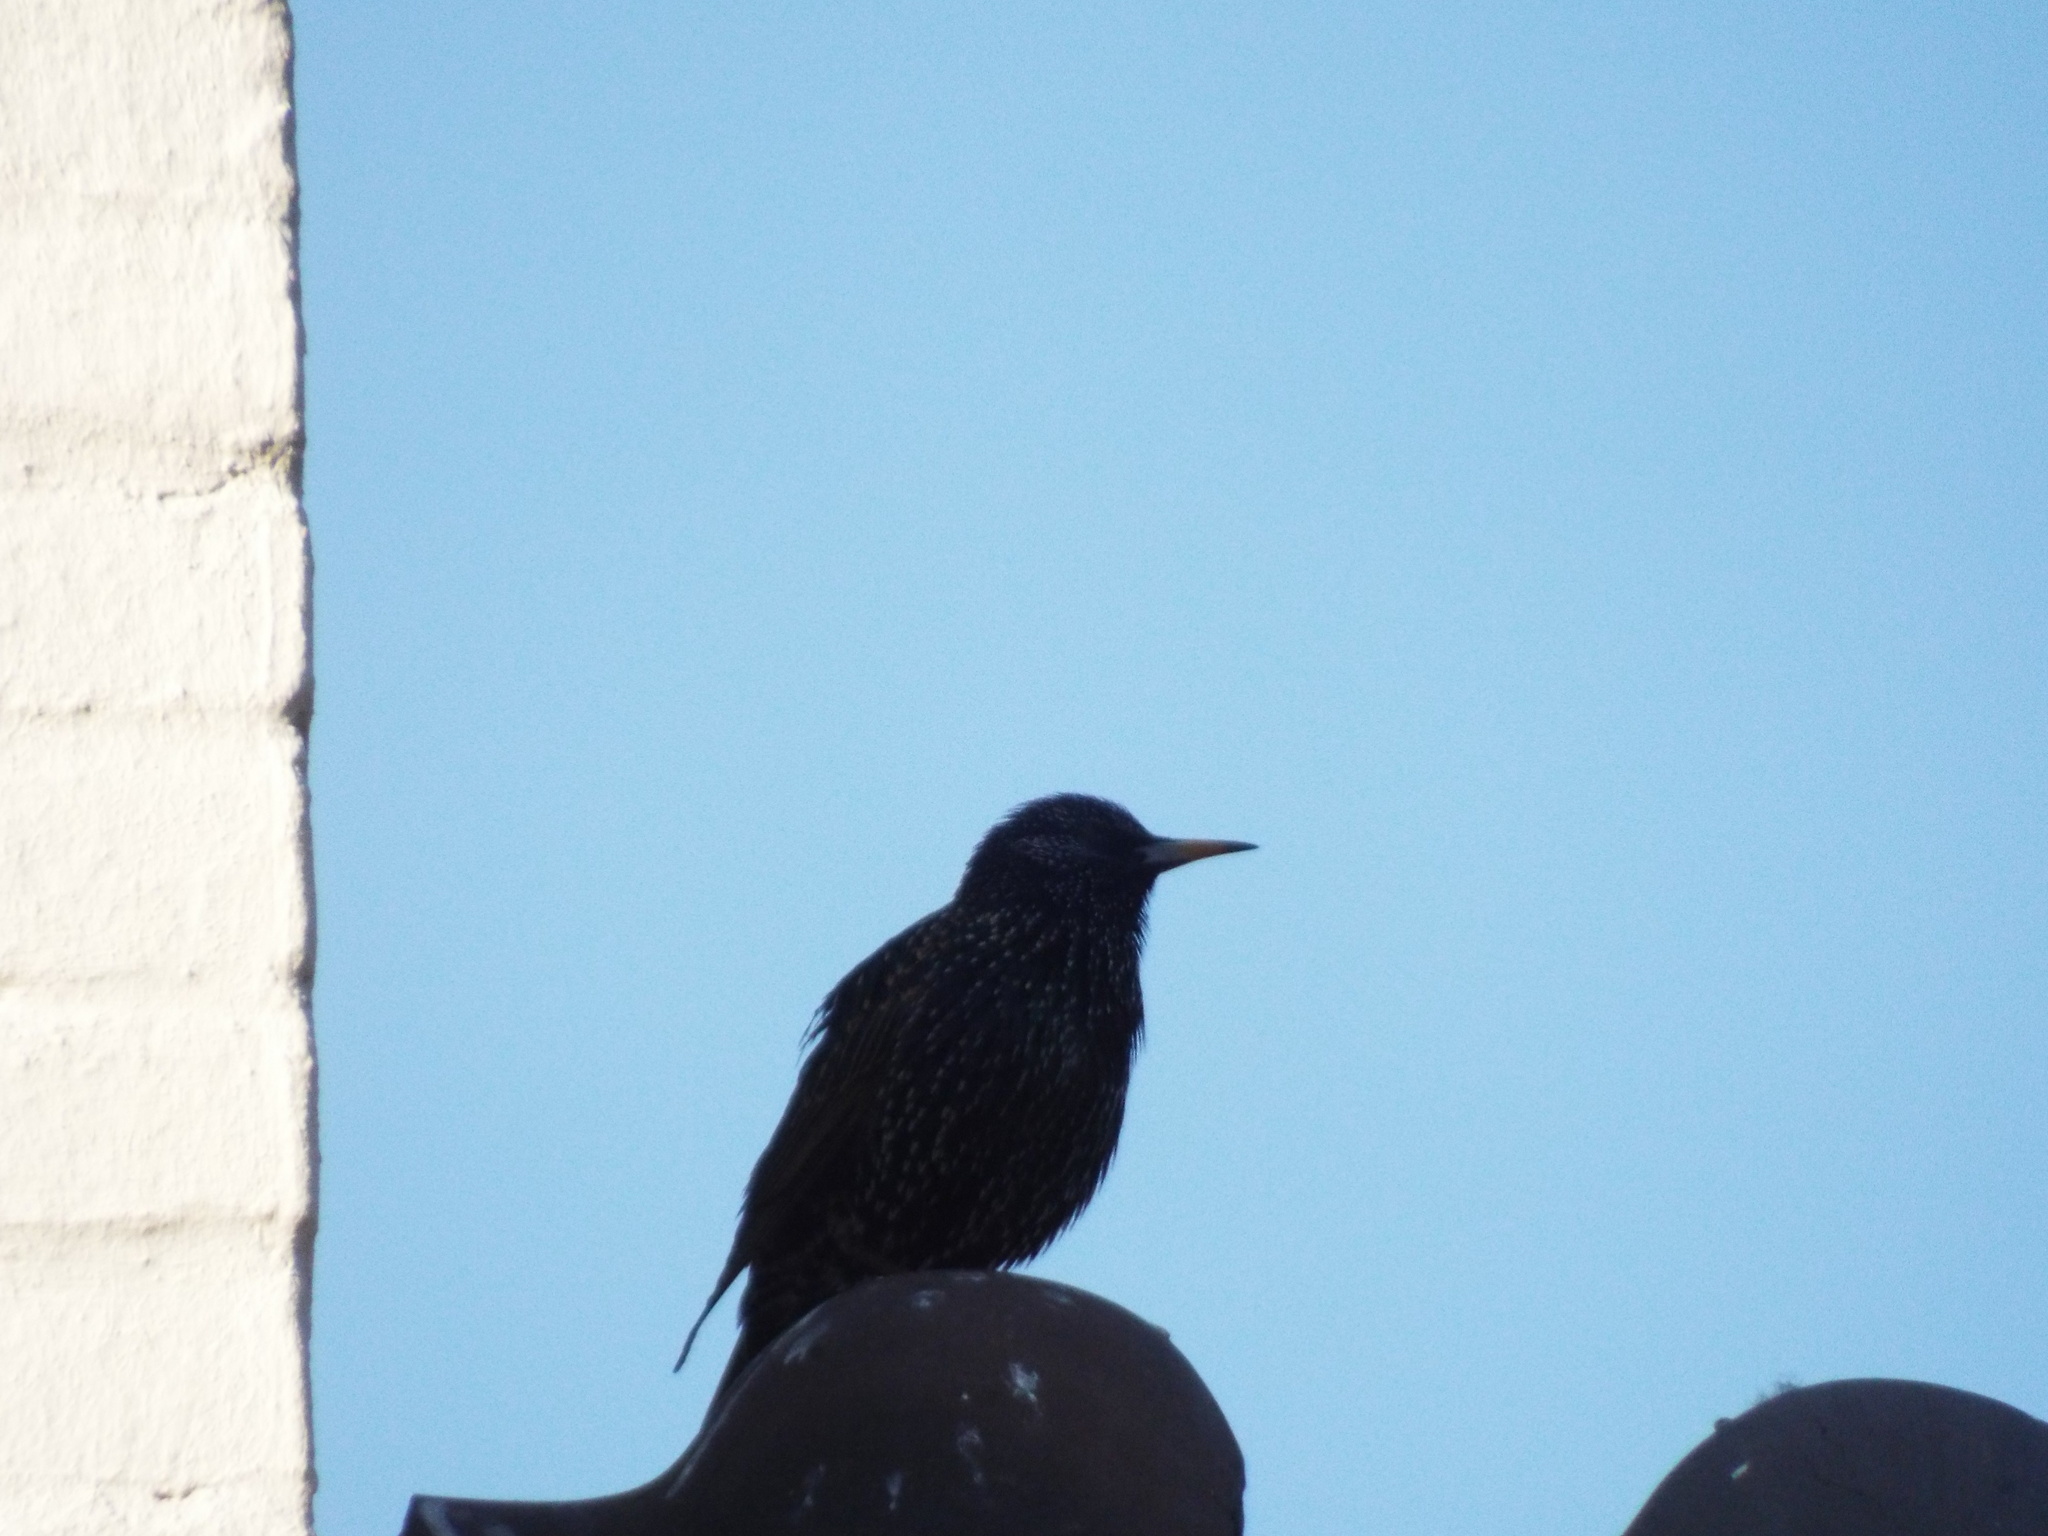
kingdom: Animalia
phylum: Chordata
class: Aves
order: Passeriformes
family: Sturnidae
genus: Sturnus
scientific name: Sturnus vulgaris
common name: Common starling
